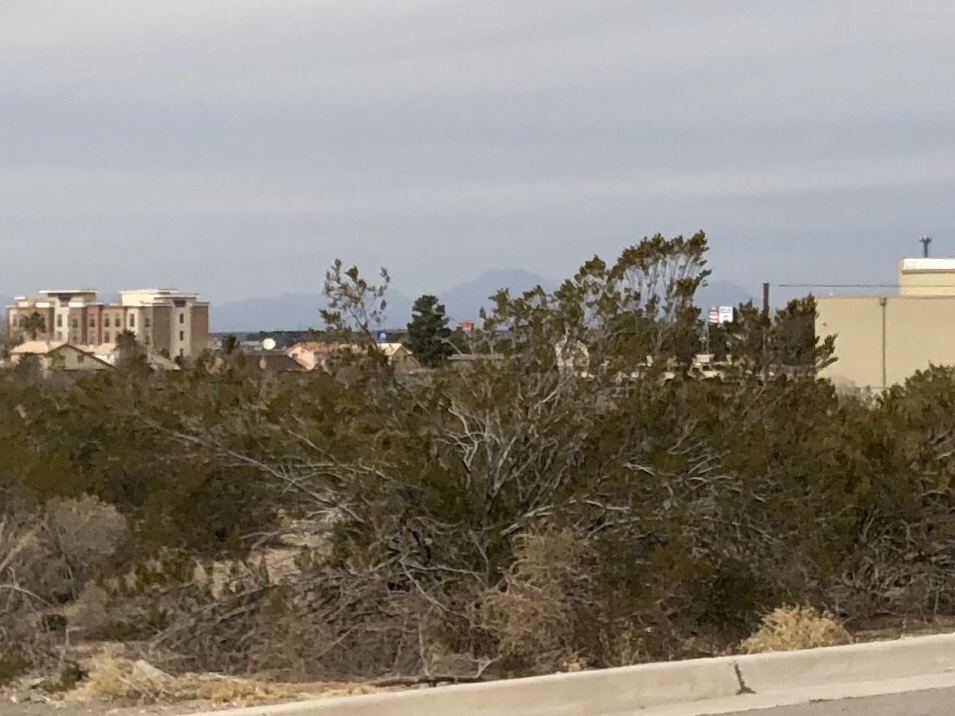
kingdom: Plantae
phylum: Tracheophyta
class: Magnoliopsida
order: Zygophyllales
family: Zygophyllaceae
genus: Larrea
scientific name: Larrea tridentata
